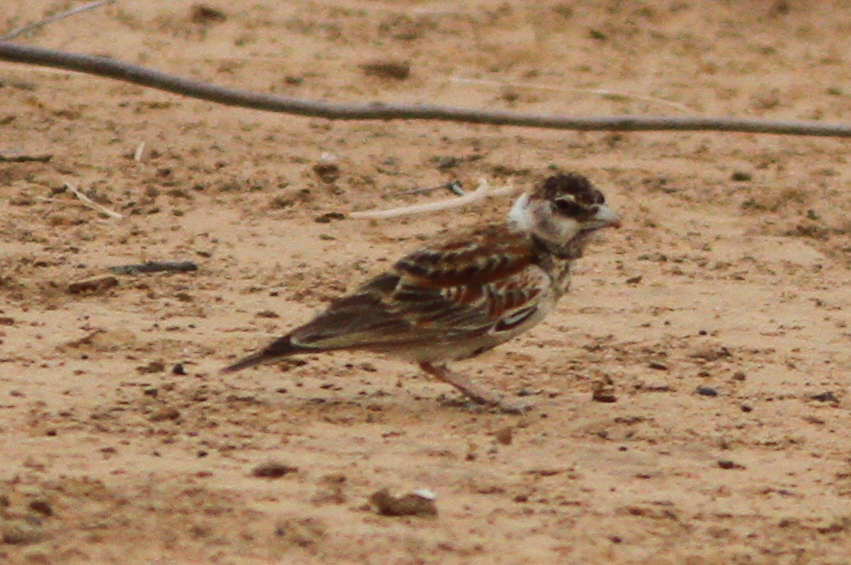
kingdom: Animalia
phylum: Chordata
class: Aves
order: Passeriformes
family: Alaudidae
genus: Eremopterix
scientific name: Eremopterix leucotis
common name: Chestnut-backed sparrow-lark
